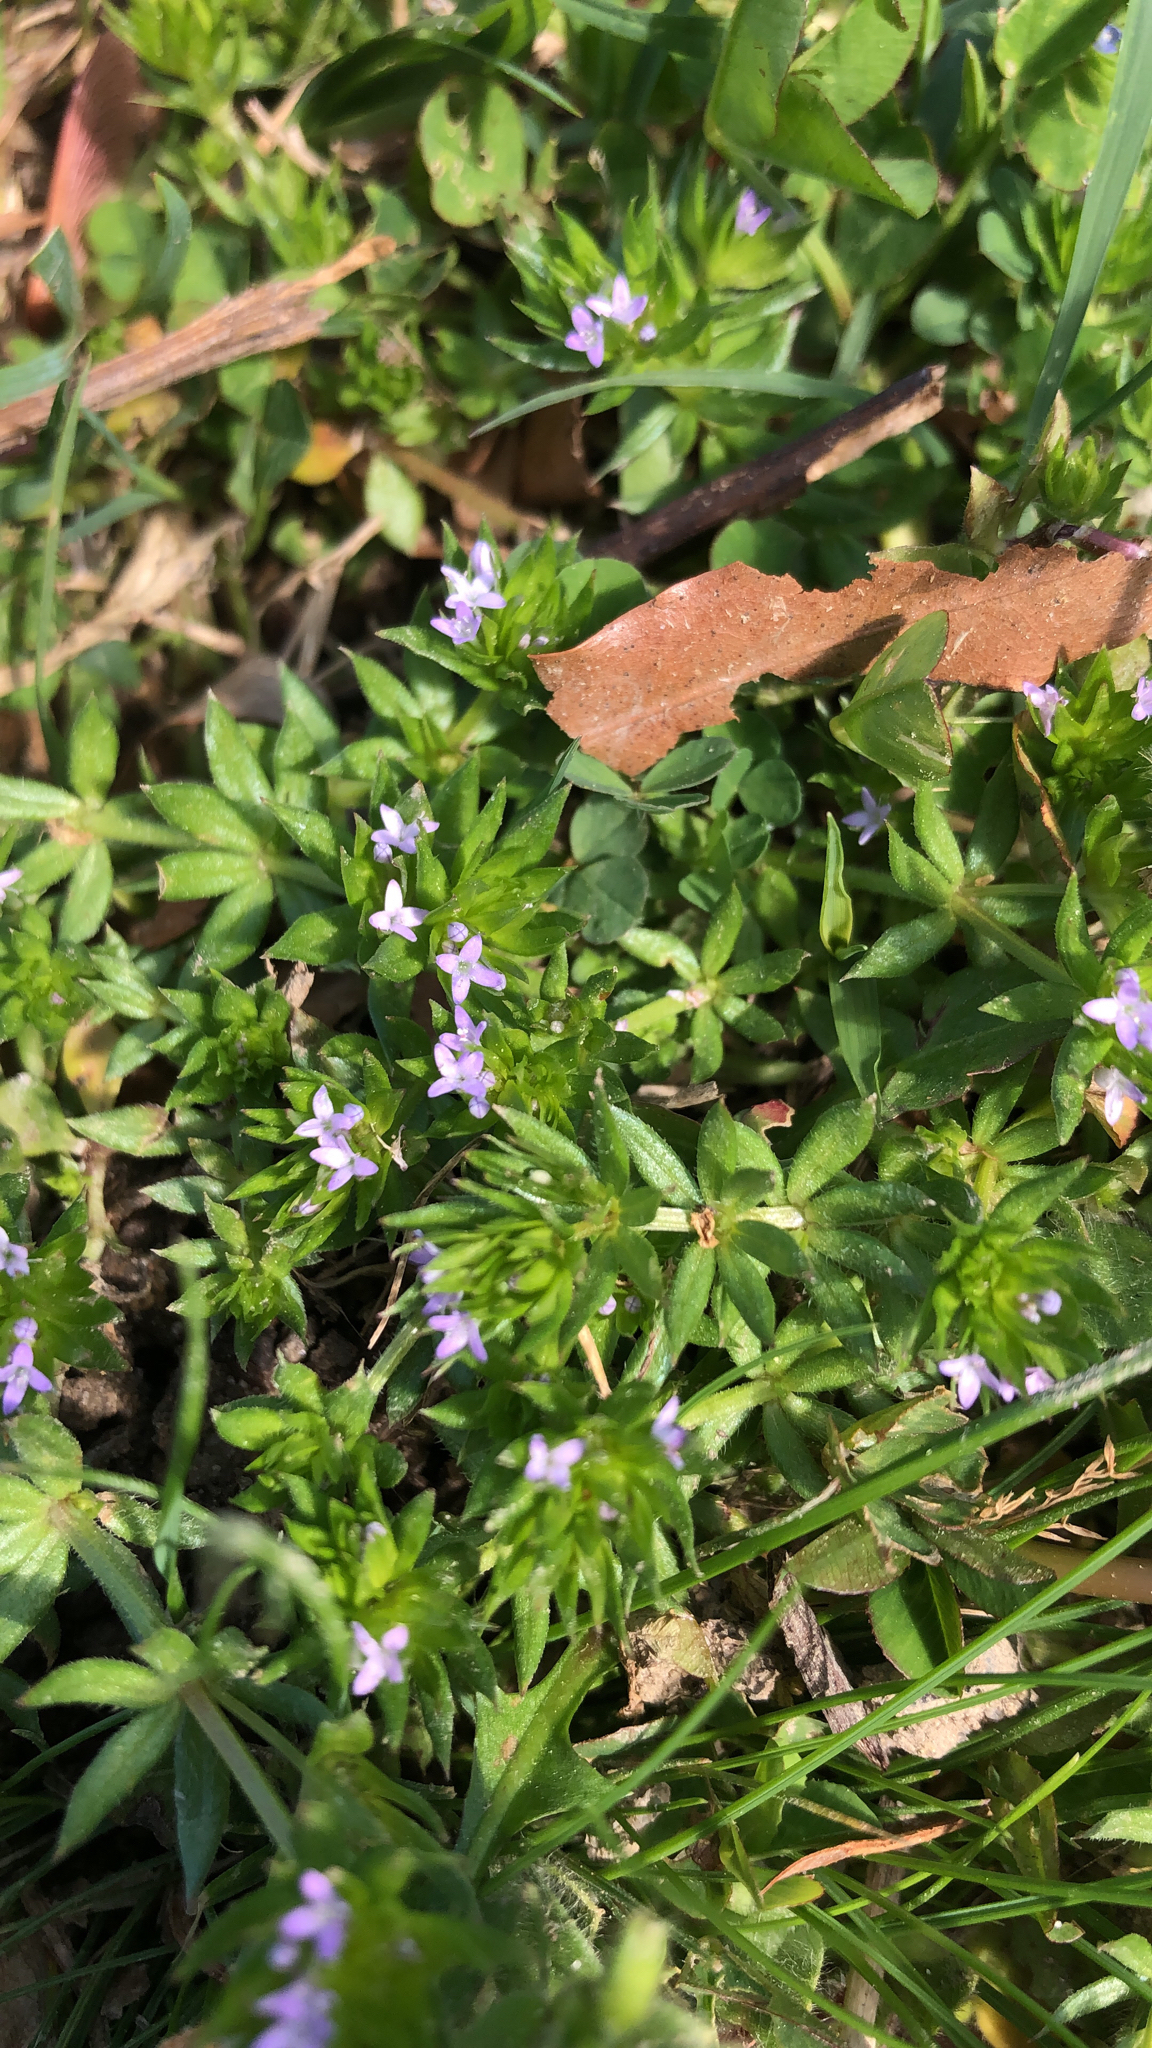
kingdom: Plantae
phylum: Tracheophyta
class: Magnoliopsida
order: Gentianales
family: Rubiaceae
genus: Sherardia
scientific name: Sherardia arvensis
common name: Field madder
